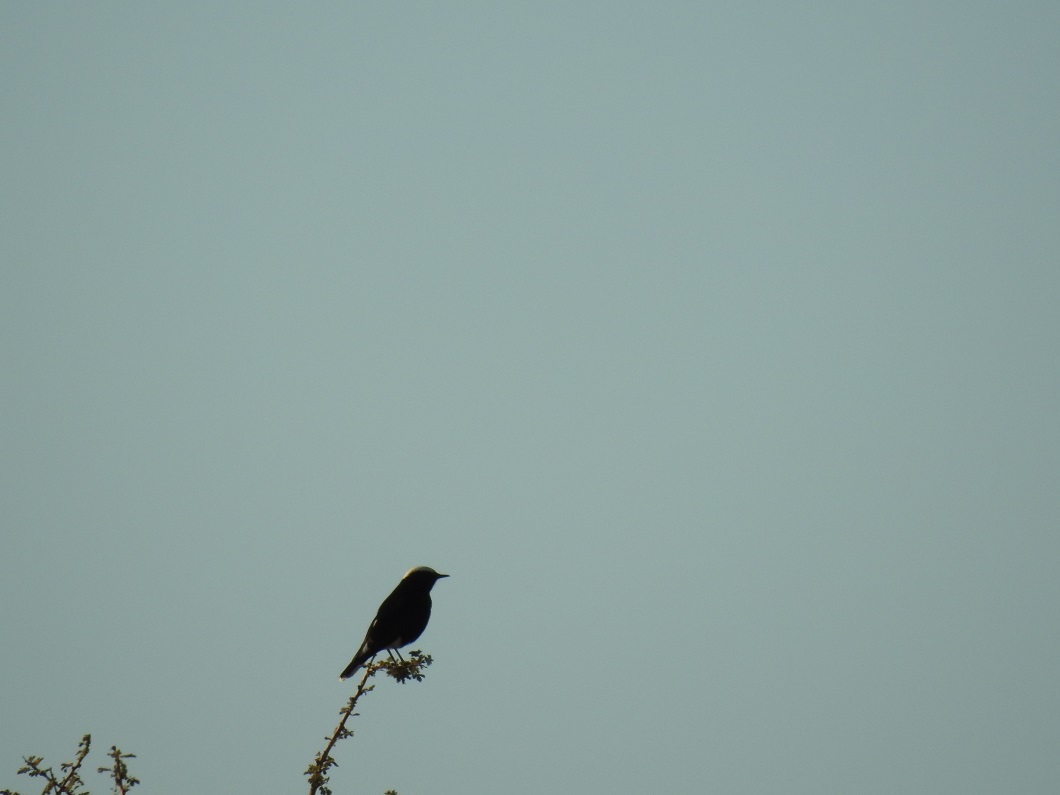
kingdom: Animalia
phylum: Chordata
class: Aves
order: Passeriformes
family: Muscicapidae
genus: Oenanthe
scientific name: Oenanthe leucopyga
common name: White-crowned wheatear
